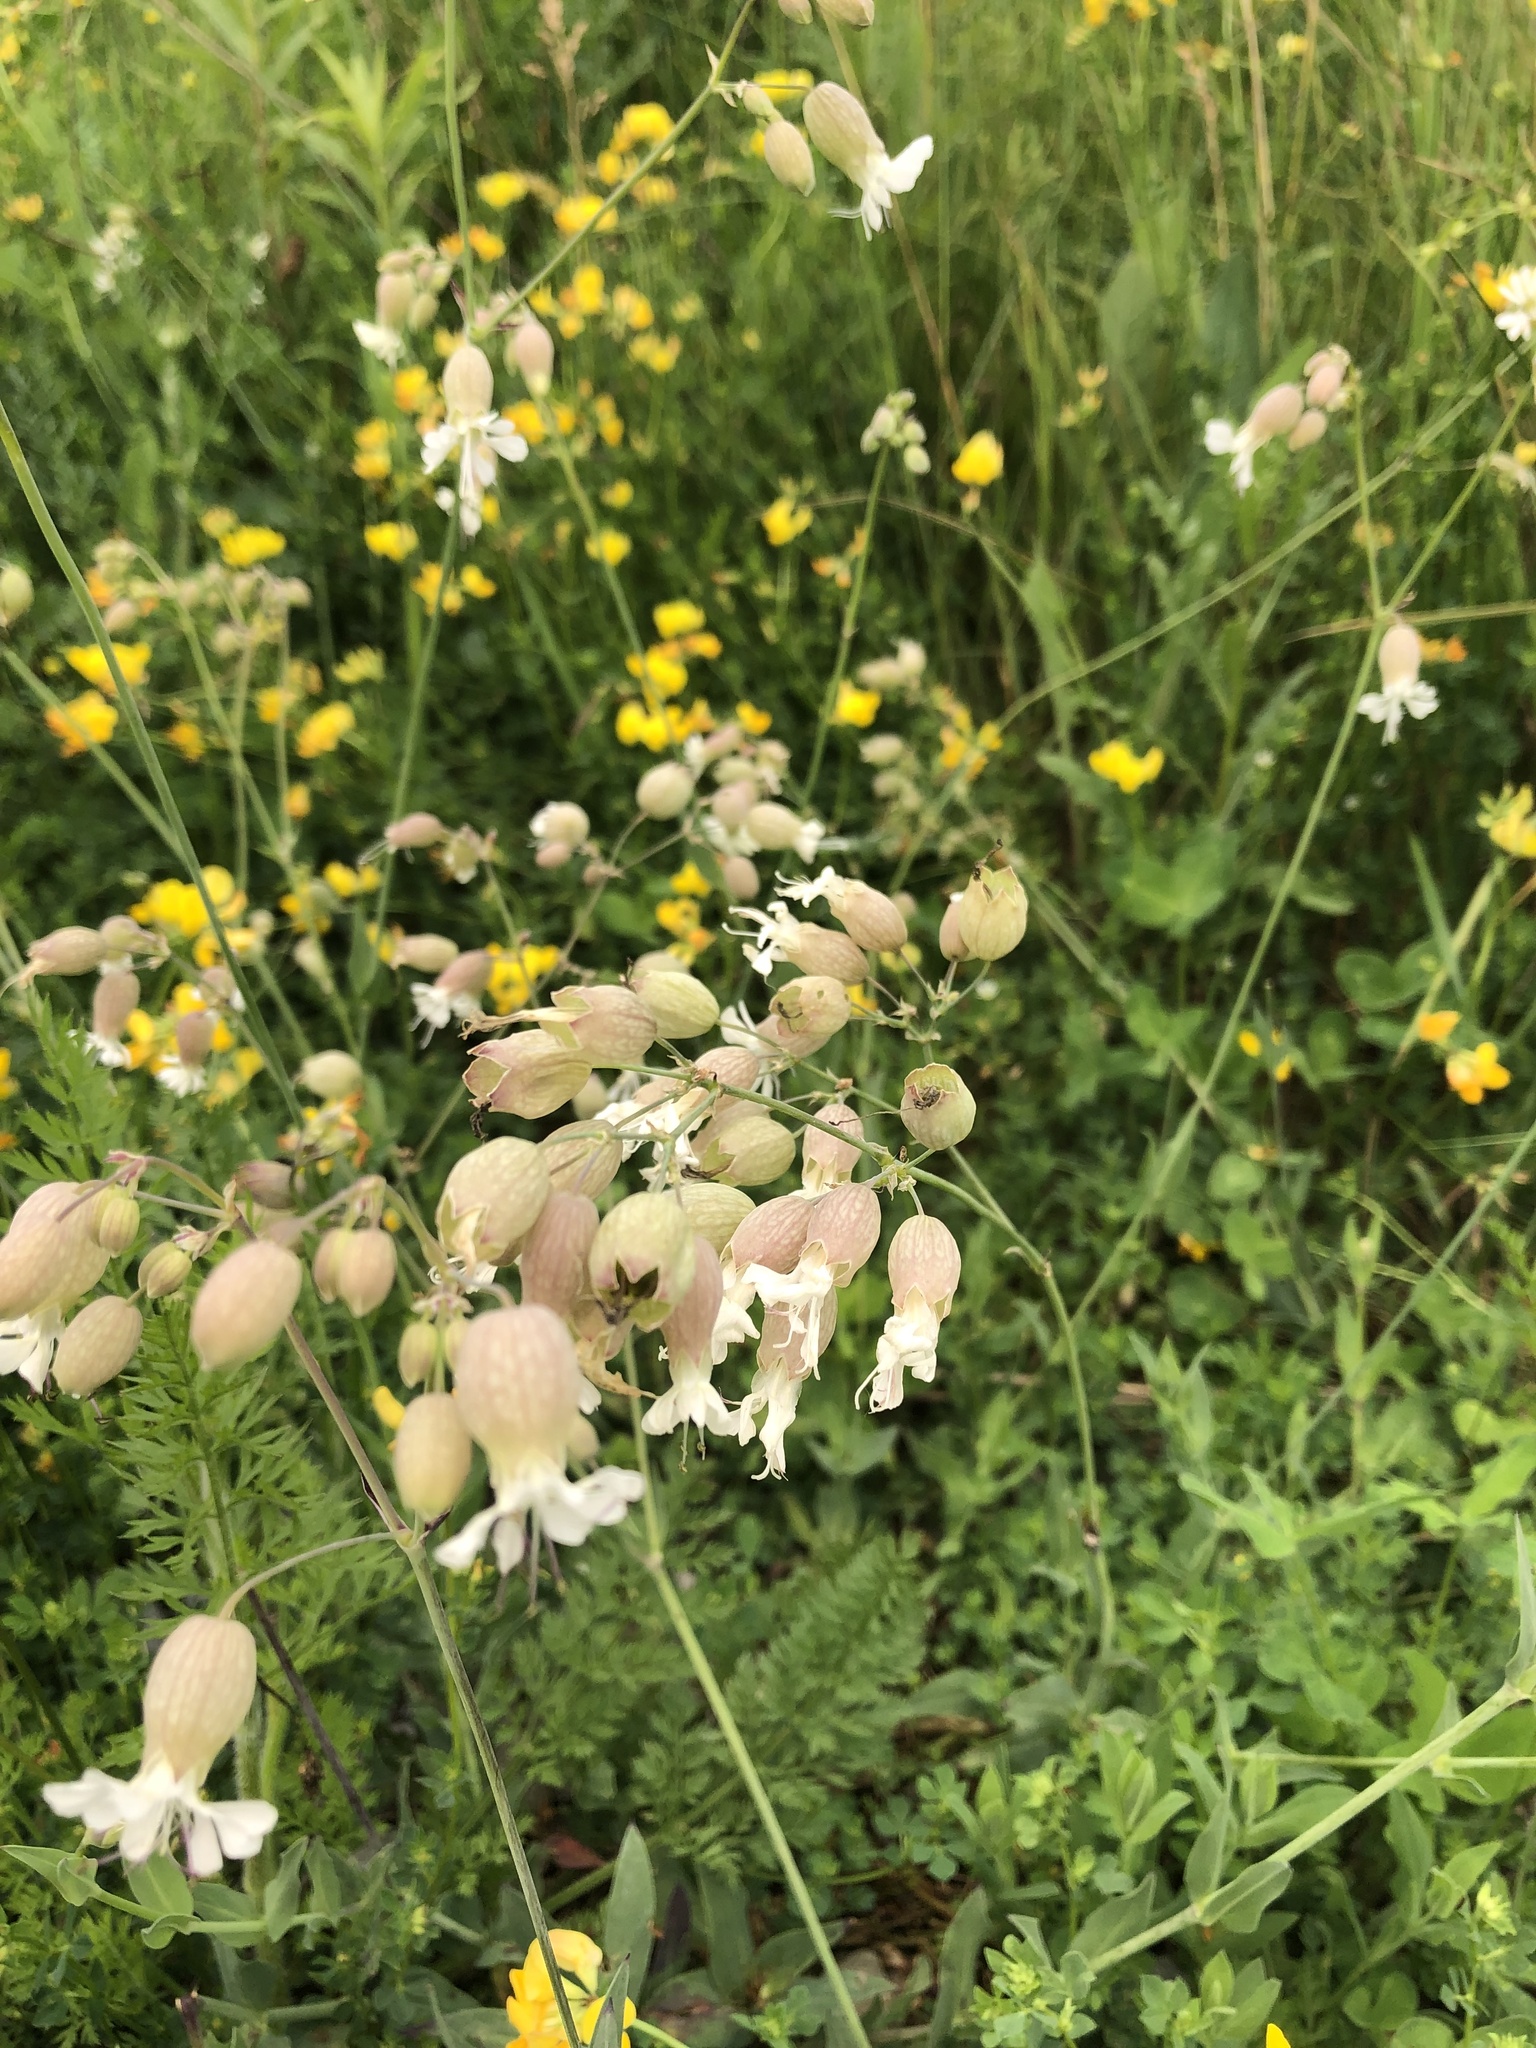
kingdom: Plantae
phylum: Tracheophyta
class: Magnoliopsida
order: Caryophyllales
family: Caryophyllaceae
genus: Silene
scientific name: Silene vulgaris
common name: Bladder campion
